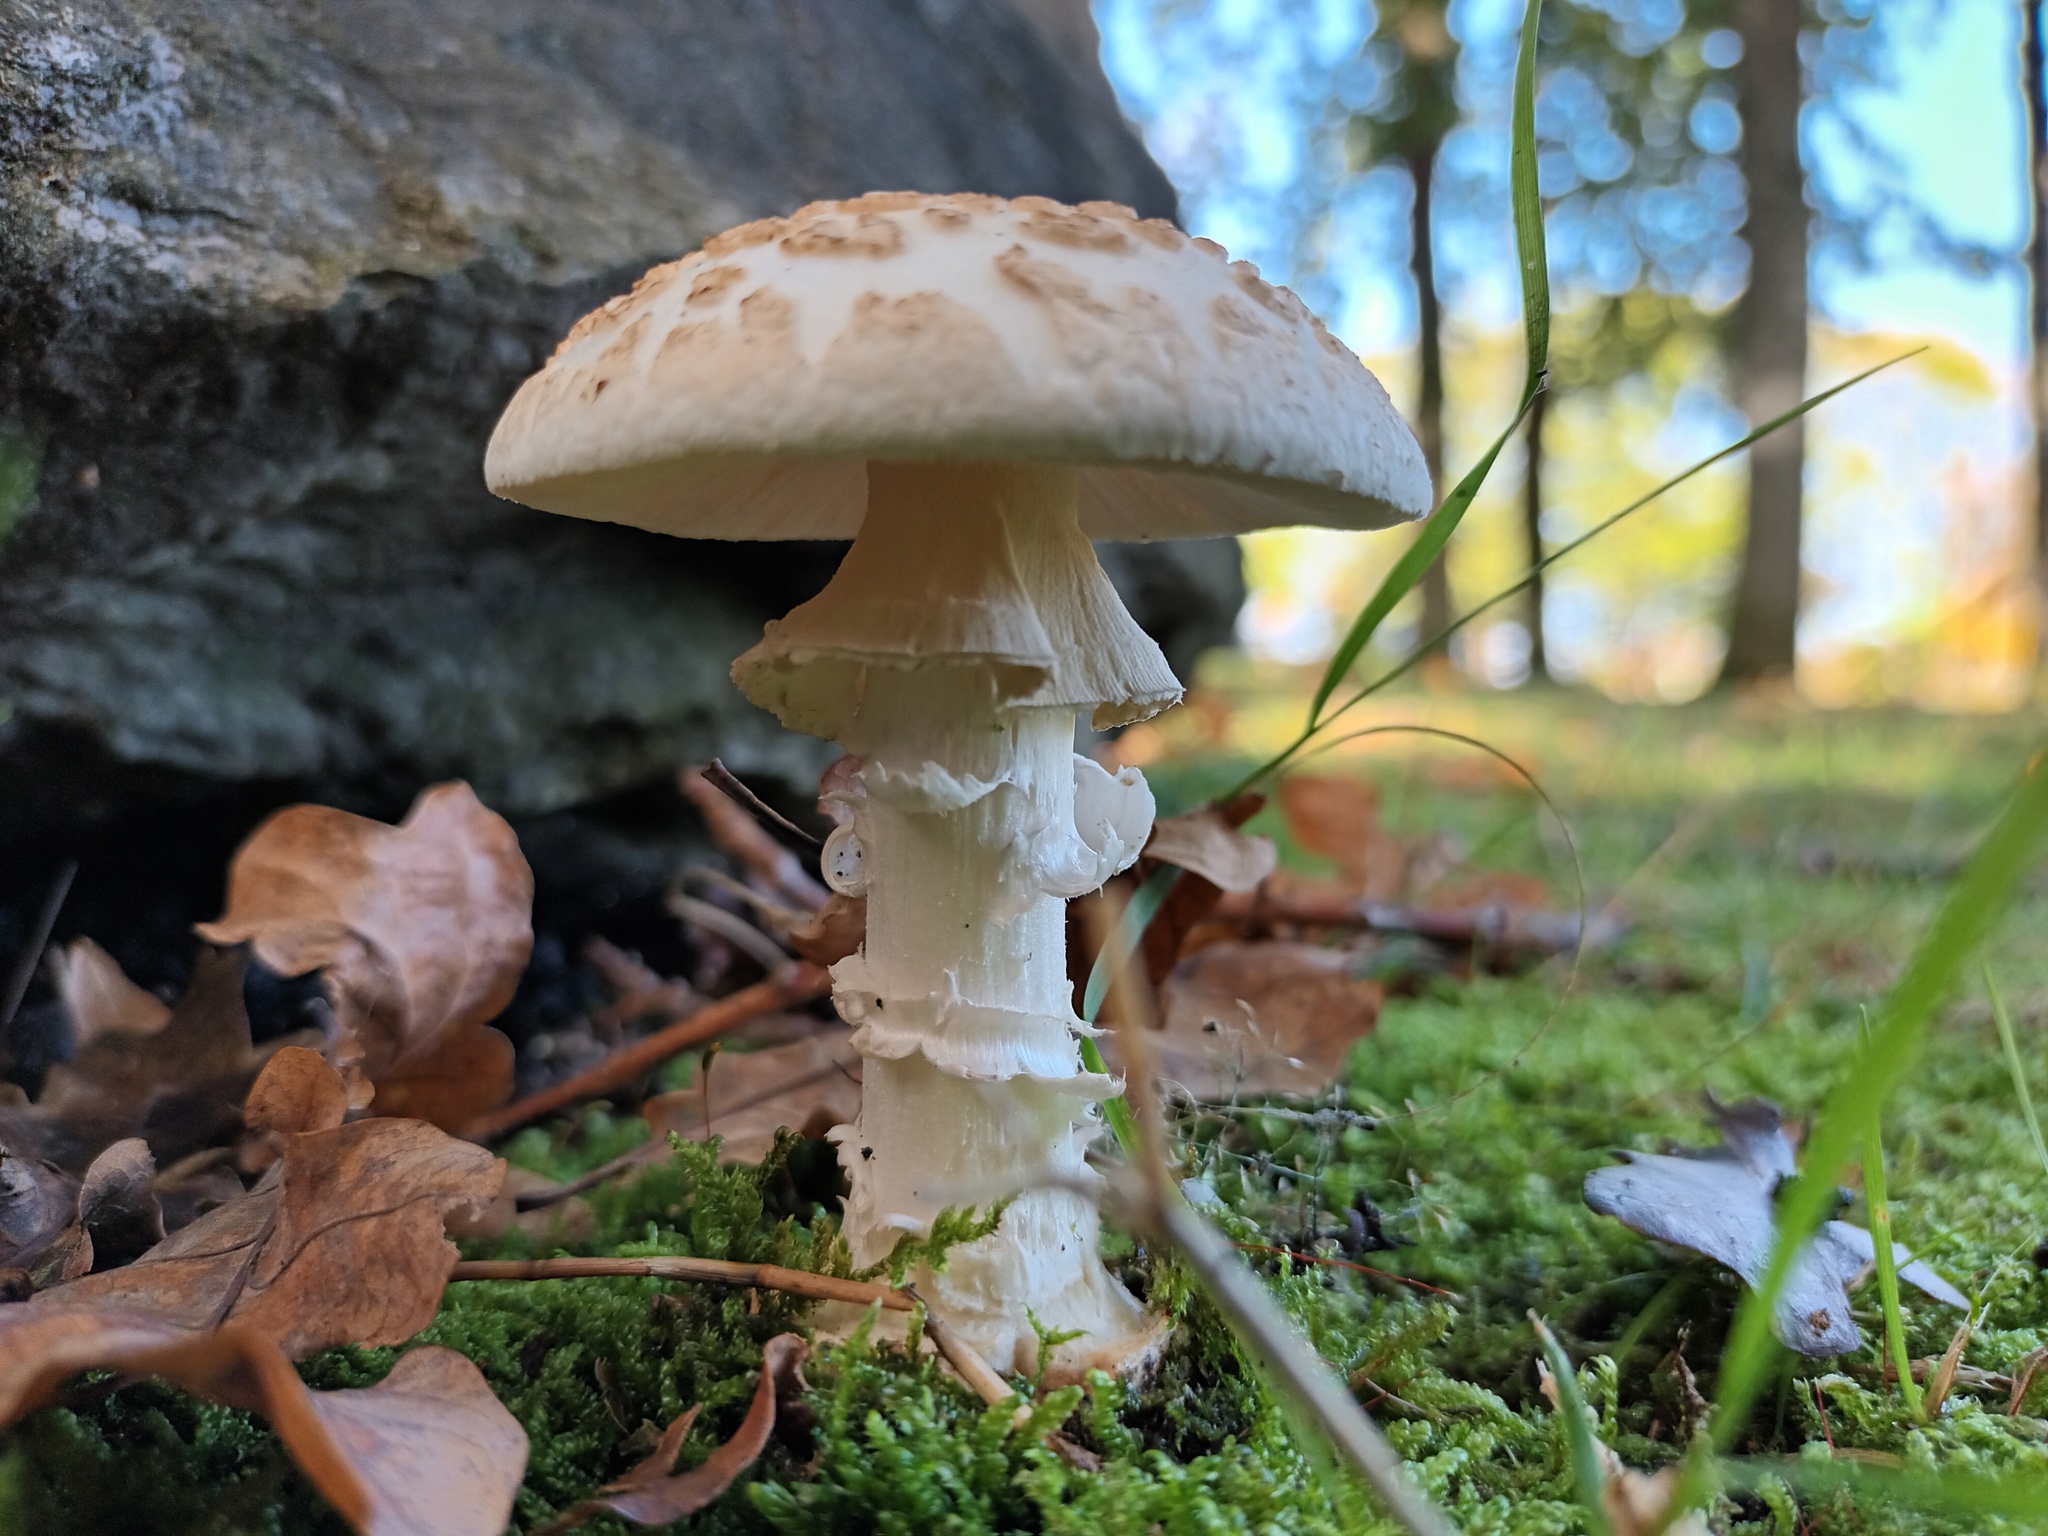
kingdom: Fungi
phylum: Basidiomycota
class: Agaricomycetes
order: Agaricales
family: Amanitaceae
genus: Amanita
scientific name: Amanita citrina
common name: False death-cap
